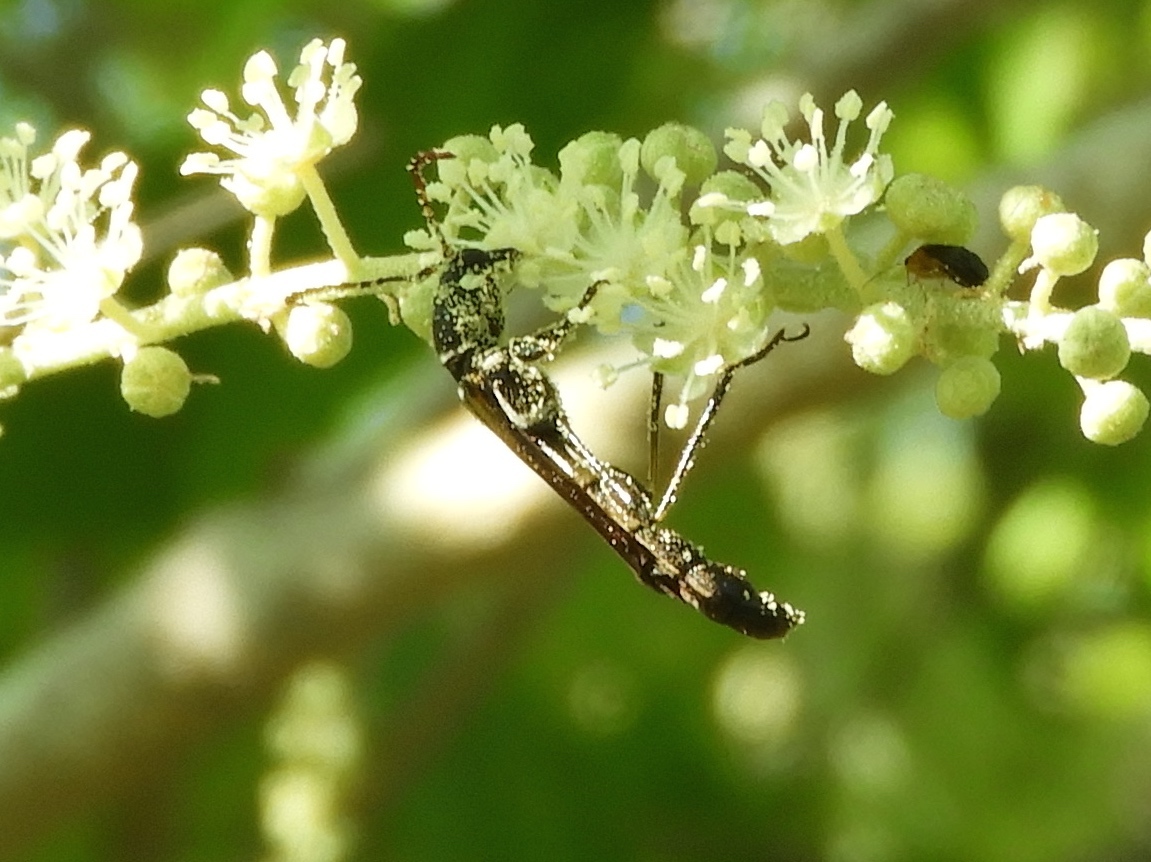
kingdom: Animalia
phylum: Arthropoda
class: Insecta
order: Coleoptera
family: Cerambycidae
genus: Odontocera
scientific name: Odontocera aurocincta
